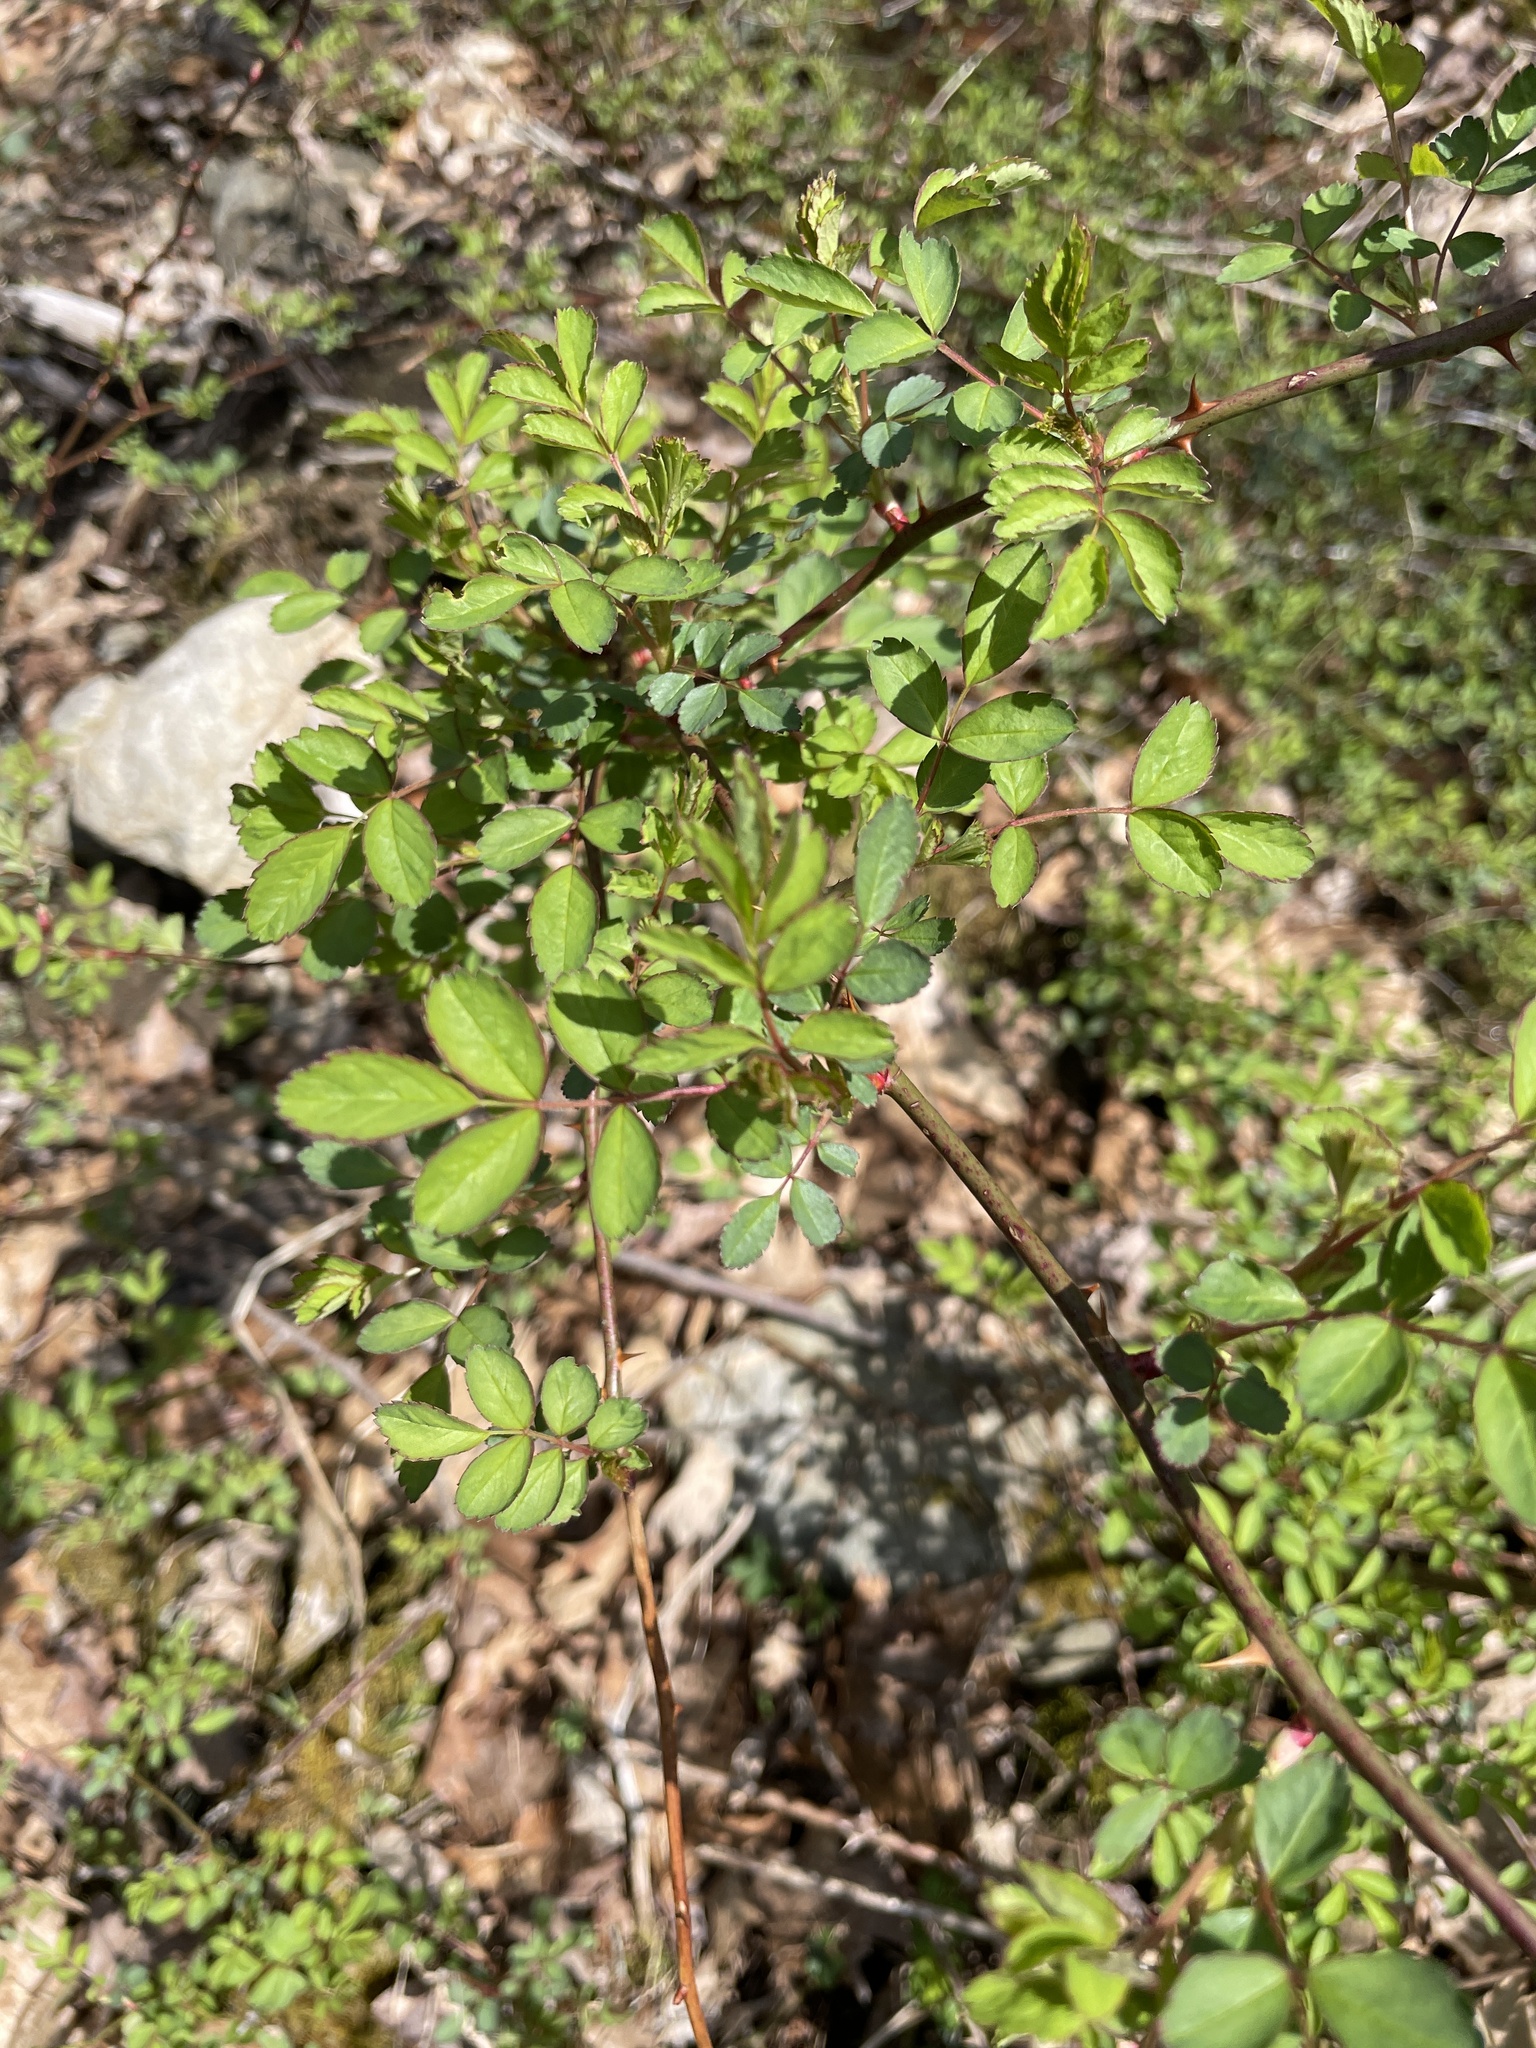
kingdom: Plantae
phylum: Tracheophyta
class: Magnoliopsida
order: Rosales
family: Rosaceae
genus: Rosa
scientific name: Rosa multiflora
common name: Multiflora rose
